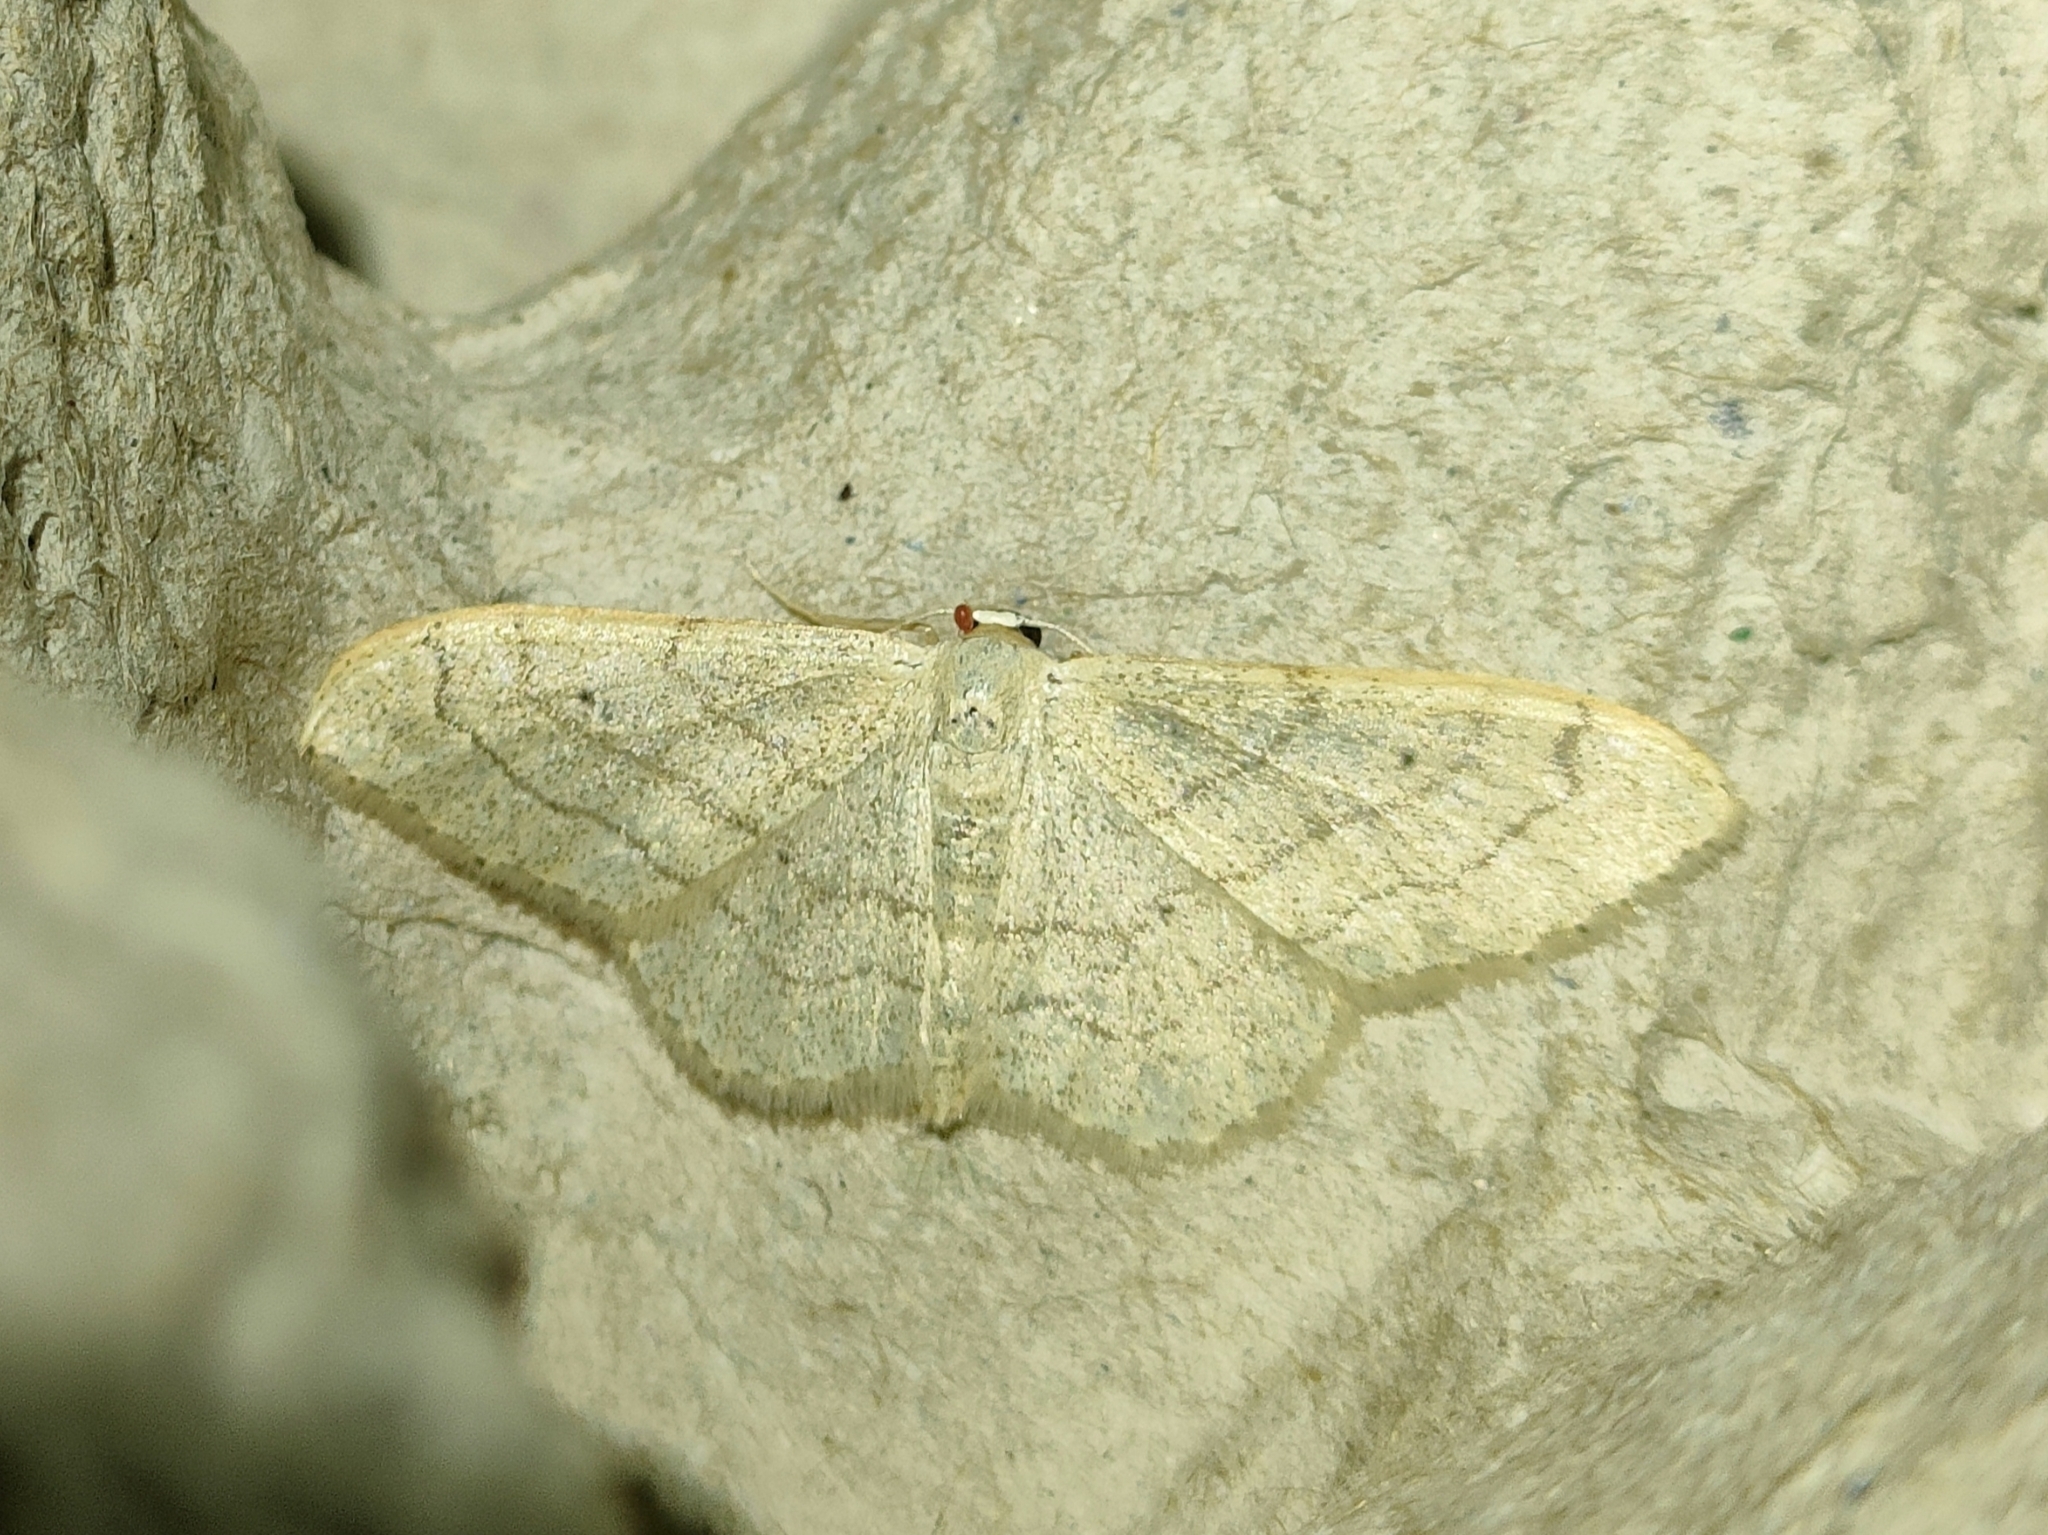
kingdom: Animalia
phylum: Arthropoda
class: Insecta
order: Lepidoptera
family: Geometridae
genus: Idaea
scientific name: Idaea aversata
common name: Riband wave
